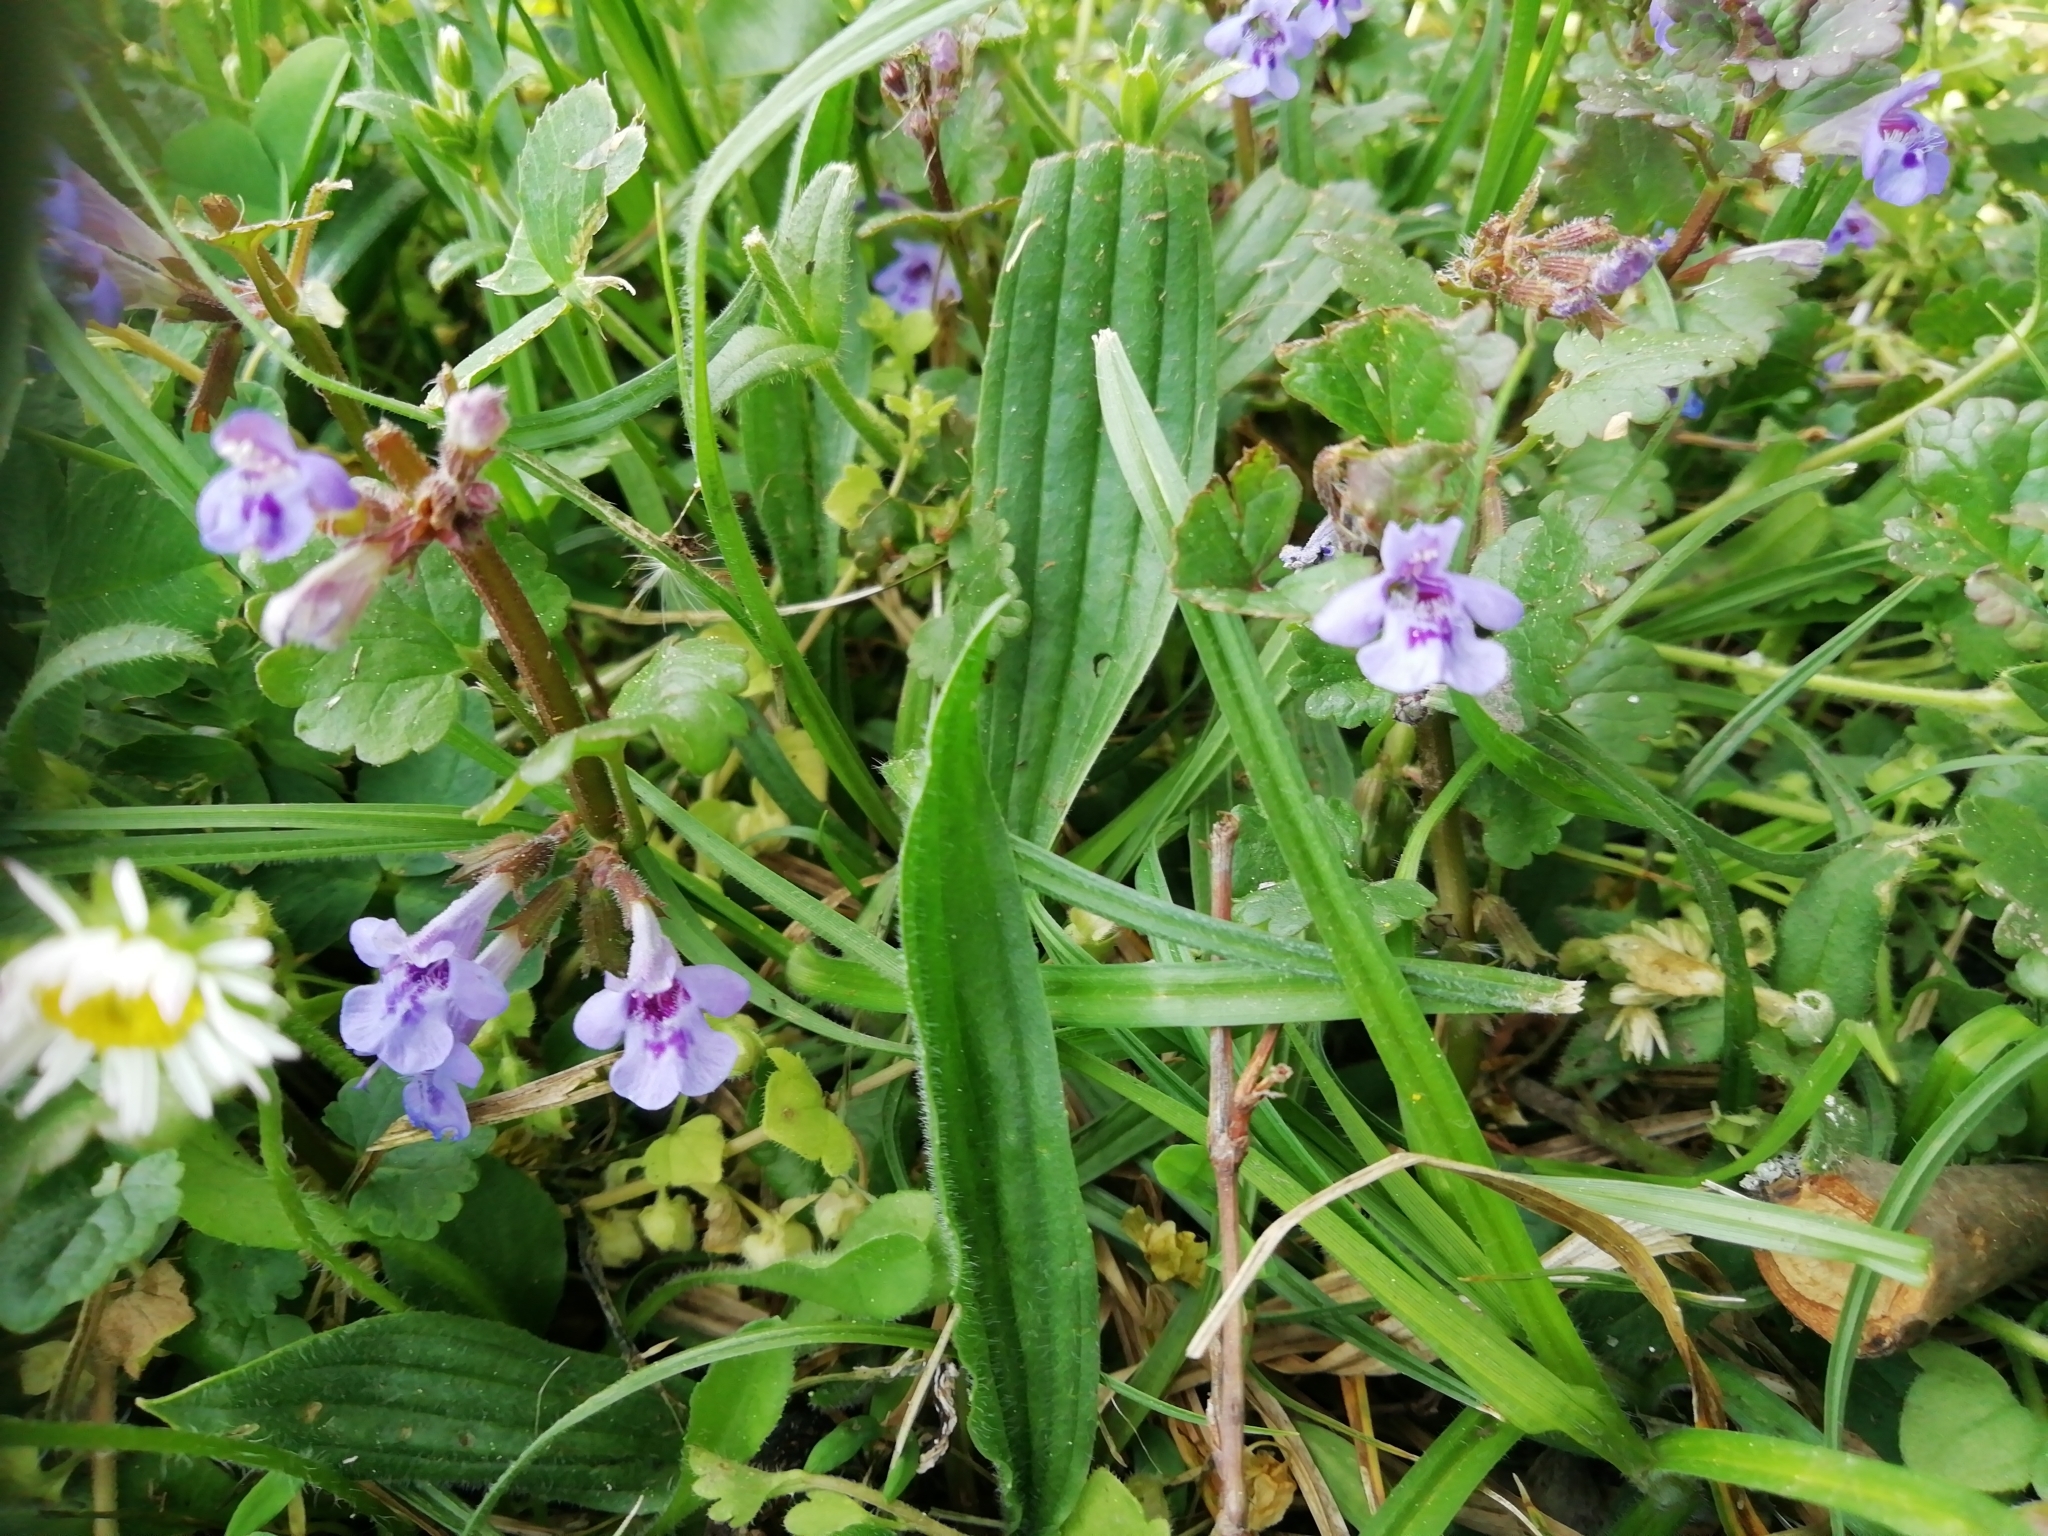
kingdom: Plantae
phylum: Tracheophyta
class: Magnoliopsida
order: Lamiales
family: Lamiaceae
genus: Glechoma
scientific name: Glechoma hederacea
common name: Ground ivy
